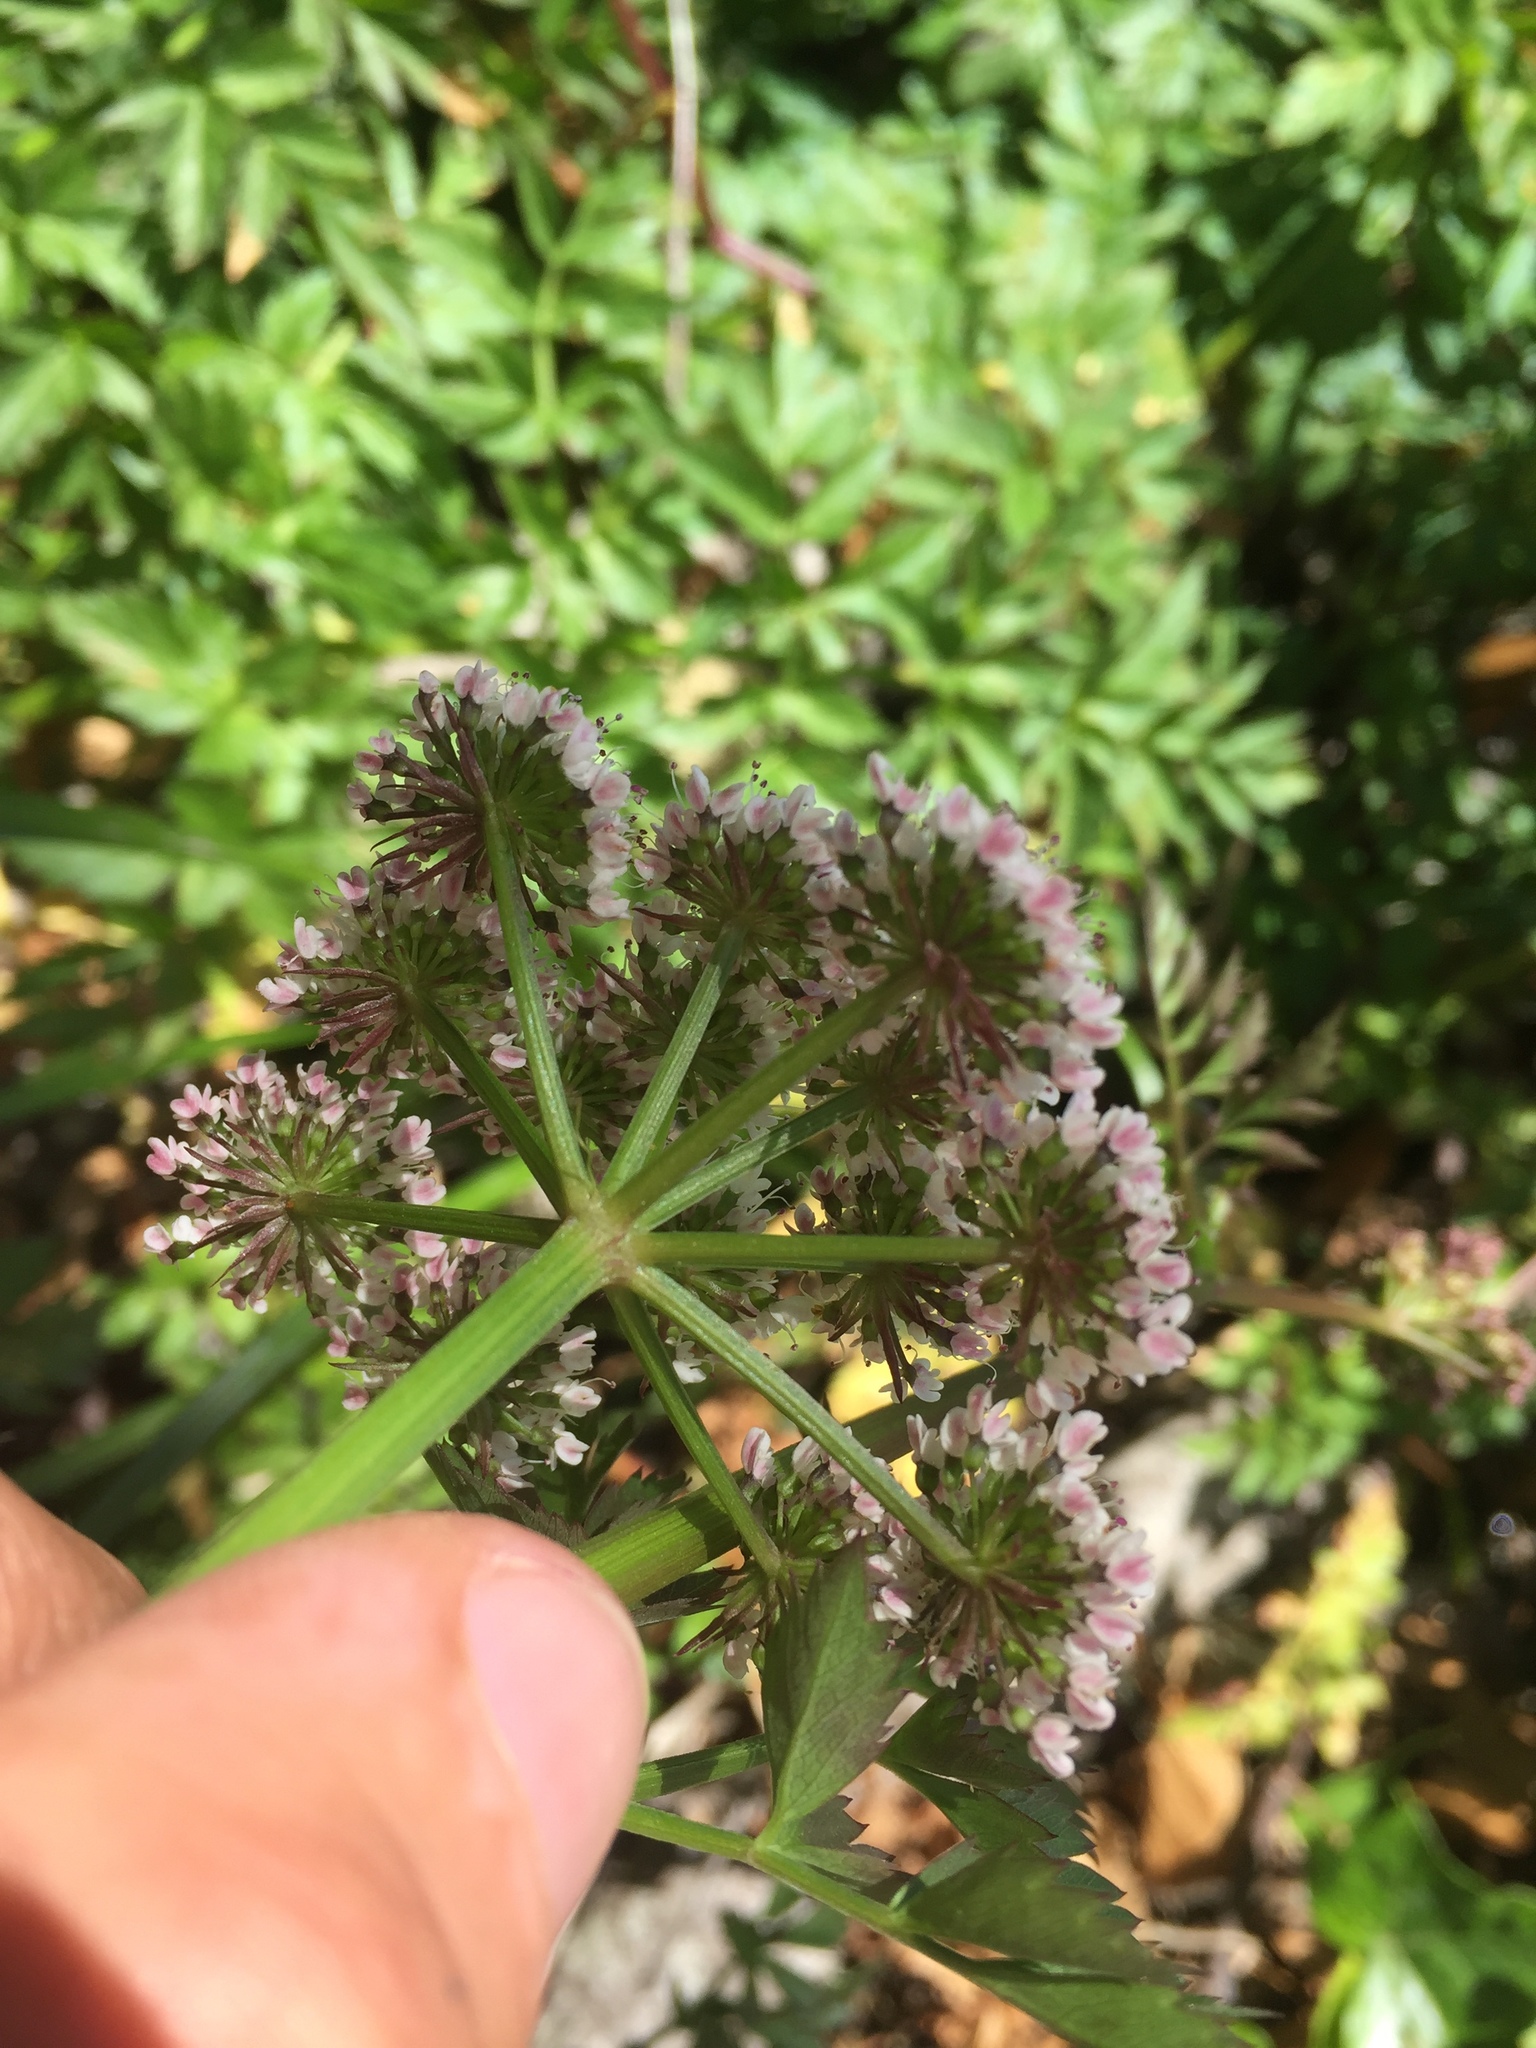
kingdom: Plantae
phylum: Tracheophyta
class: Magnoliopsida
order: Apiales
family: Apiaceae
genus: Oenanthe
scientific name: Oenanthe sarmentosa
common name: American water-parsley
